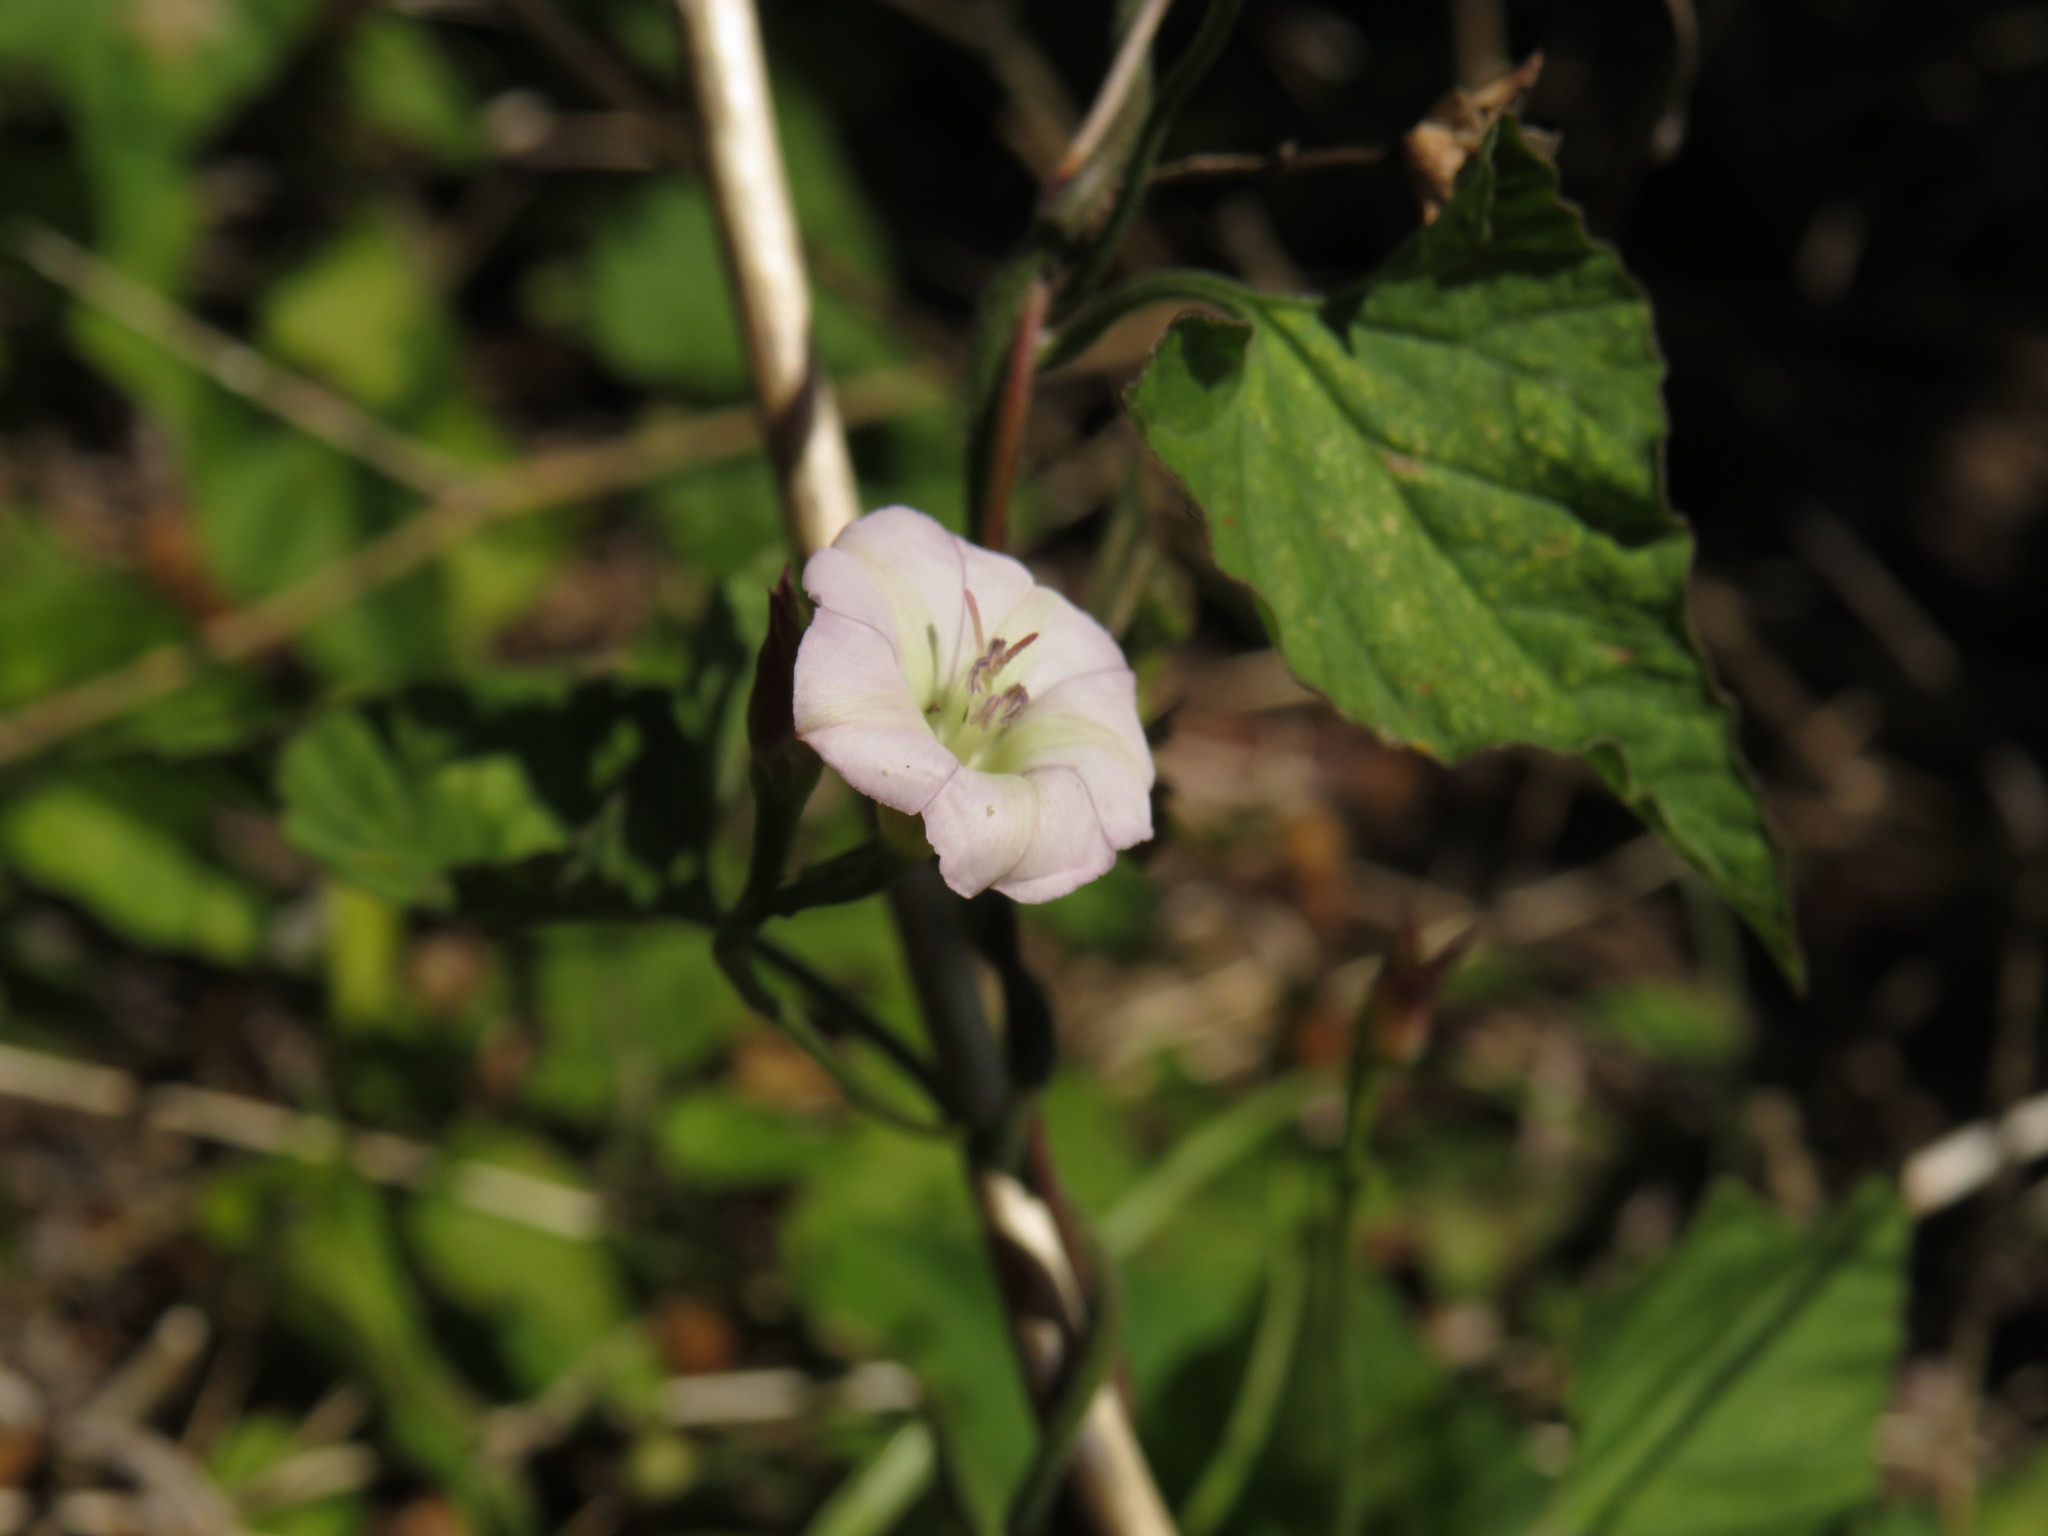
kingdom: Plantae
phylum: Tracheophyta
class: Magnoliopsida
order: Solanales
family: Convolvulaceae
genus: Convolvulus
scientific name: Convolvulus farinosus
